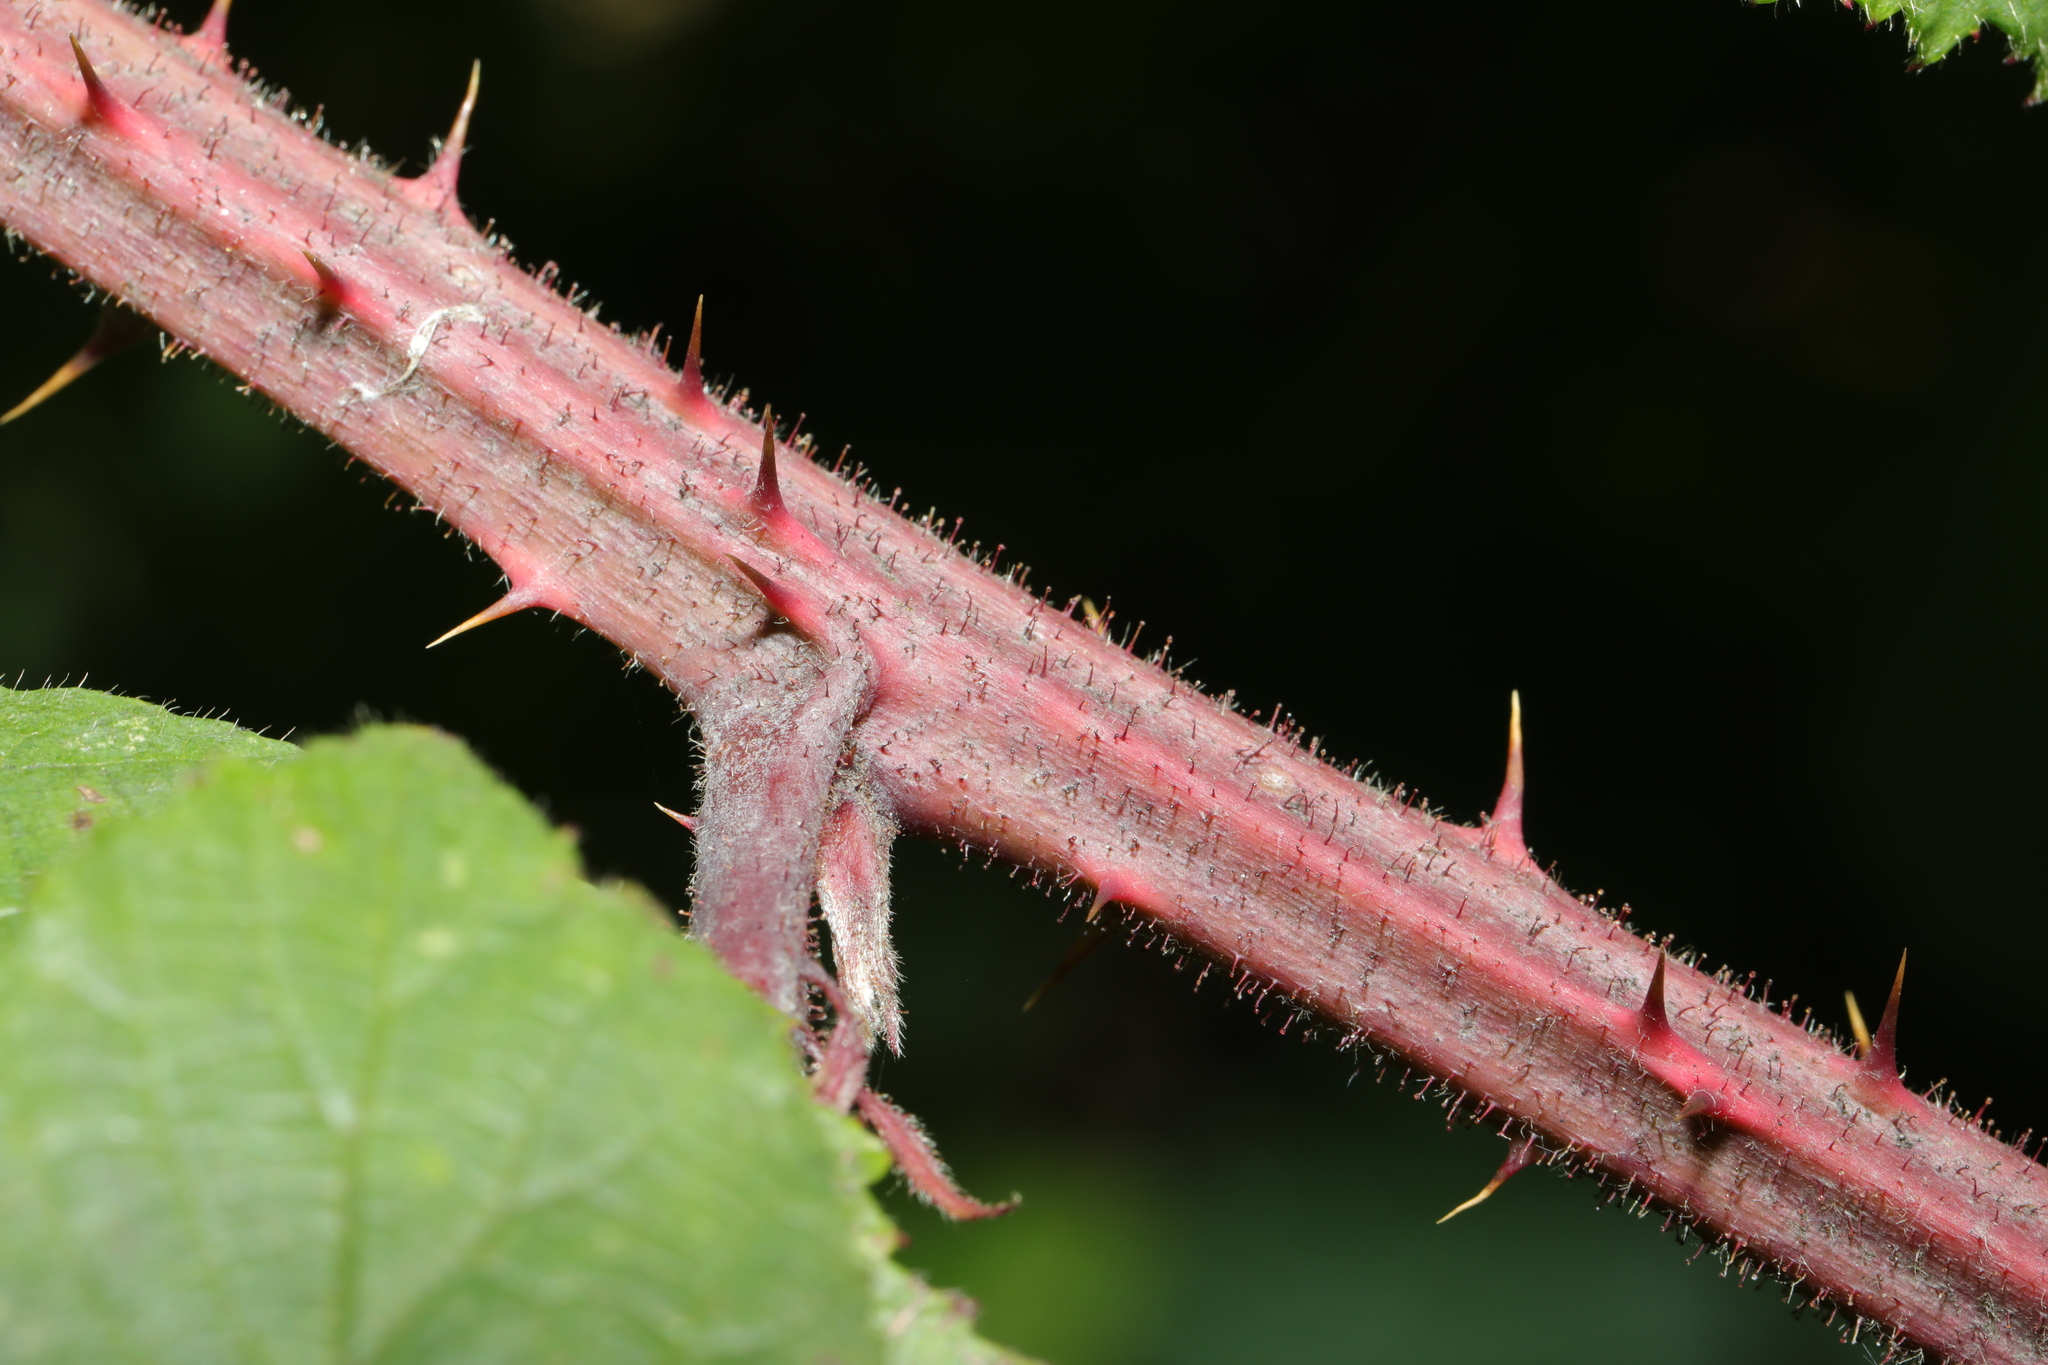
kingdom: Plantae
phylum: Tracheophyta
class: Magnoliopsida
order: Rosales
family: Rosaceae
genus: Rubus
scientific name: Rubus rufescens
